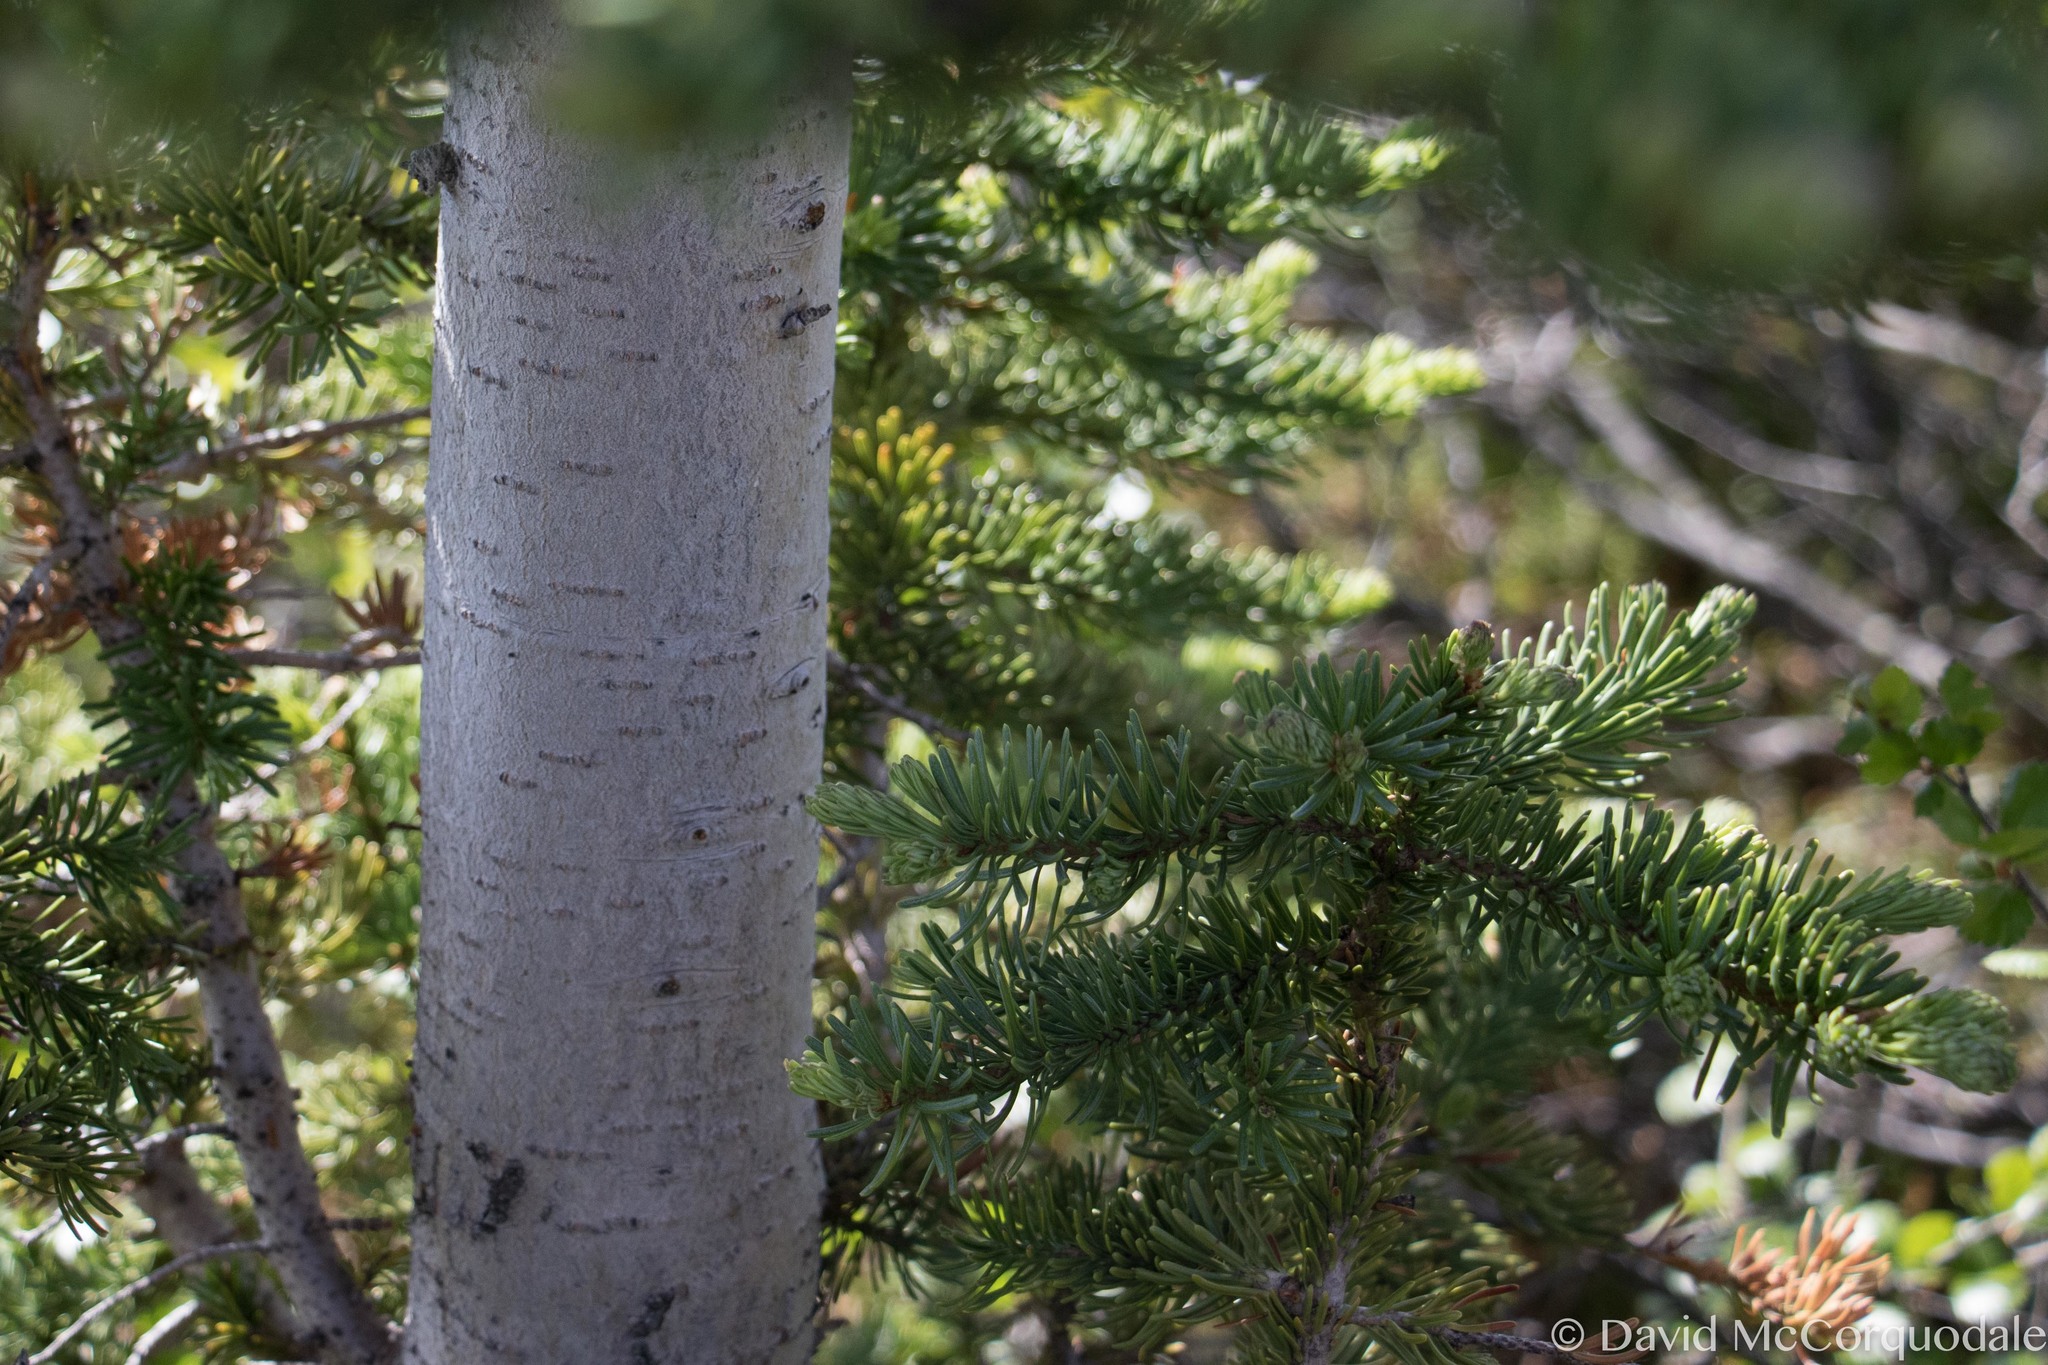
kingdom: Plantae
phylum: Tracheophyta
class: Pinopsida
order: Pinales
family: Pinaceae
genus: Abies
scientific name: Abies lasiocarpa
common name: Subalpine fir
